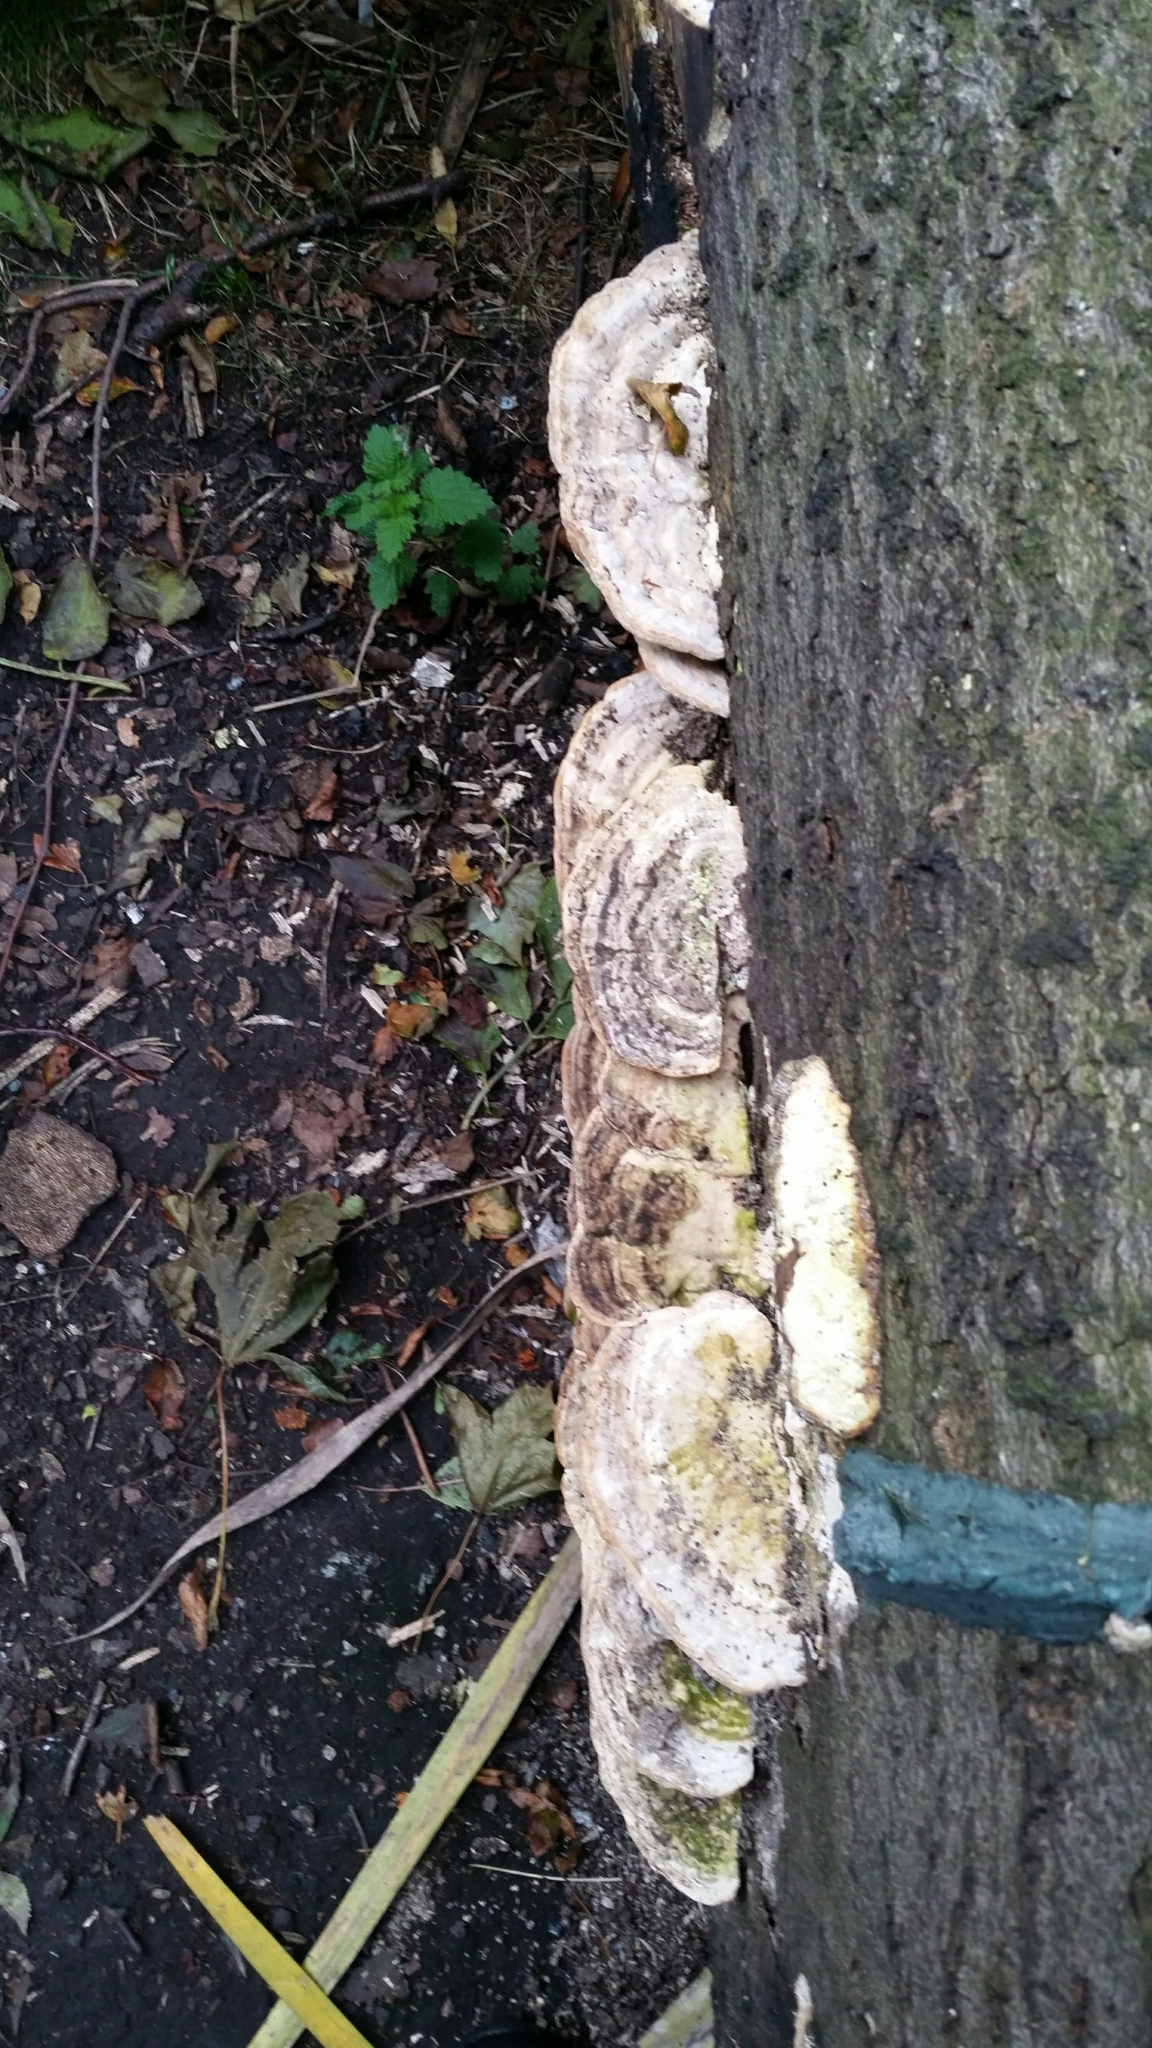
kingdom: Fungi
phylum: Basidiomycota
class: Agaricomycetes
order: Polyporales
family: Polyporaceae
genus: Trametes
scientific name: Trametes gibbosa
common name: Lumpy bracket
